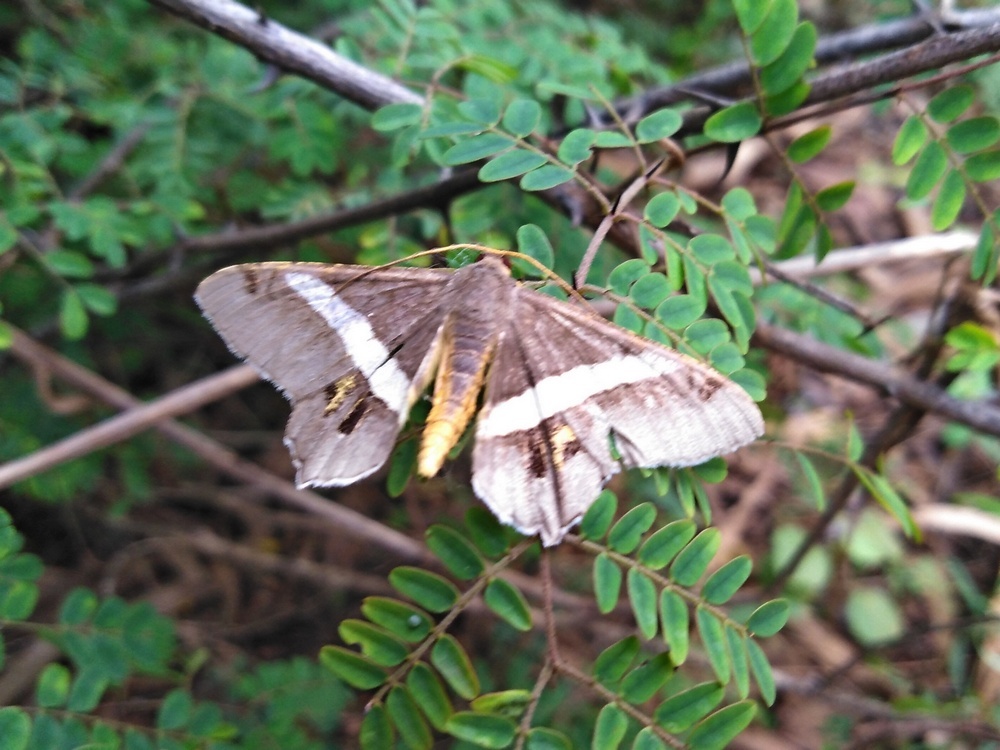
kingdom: Animalia
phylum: Arthropoda
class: Insecta
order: Lepidoptera
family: Geometridae
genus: Chiasmia
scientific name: Chiasmia eleonora
